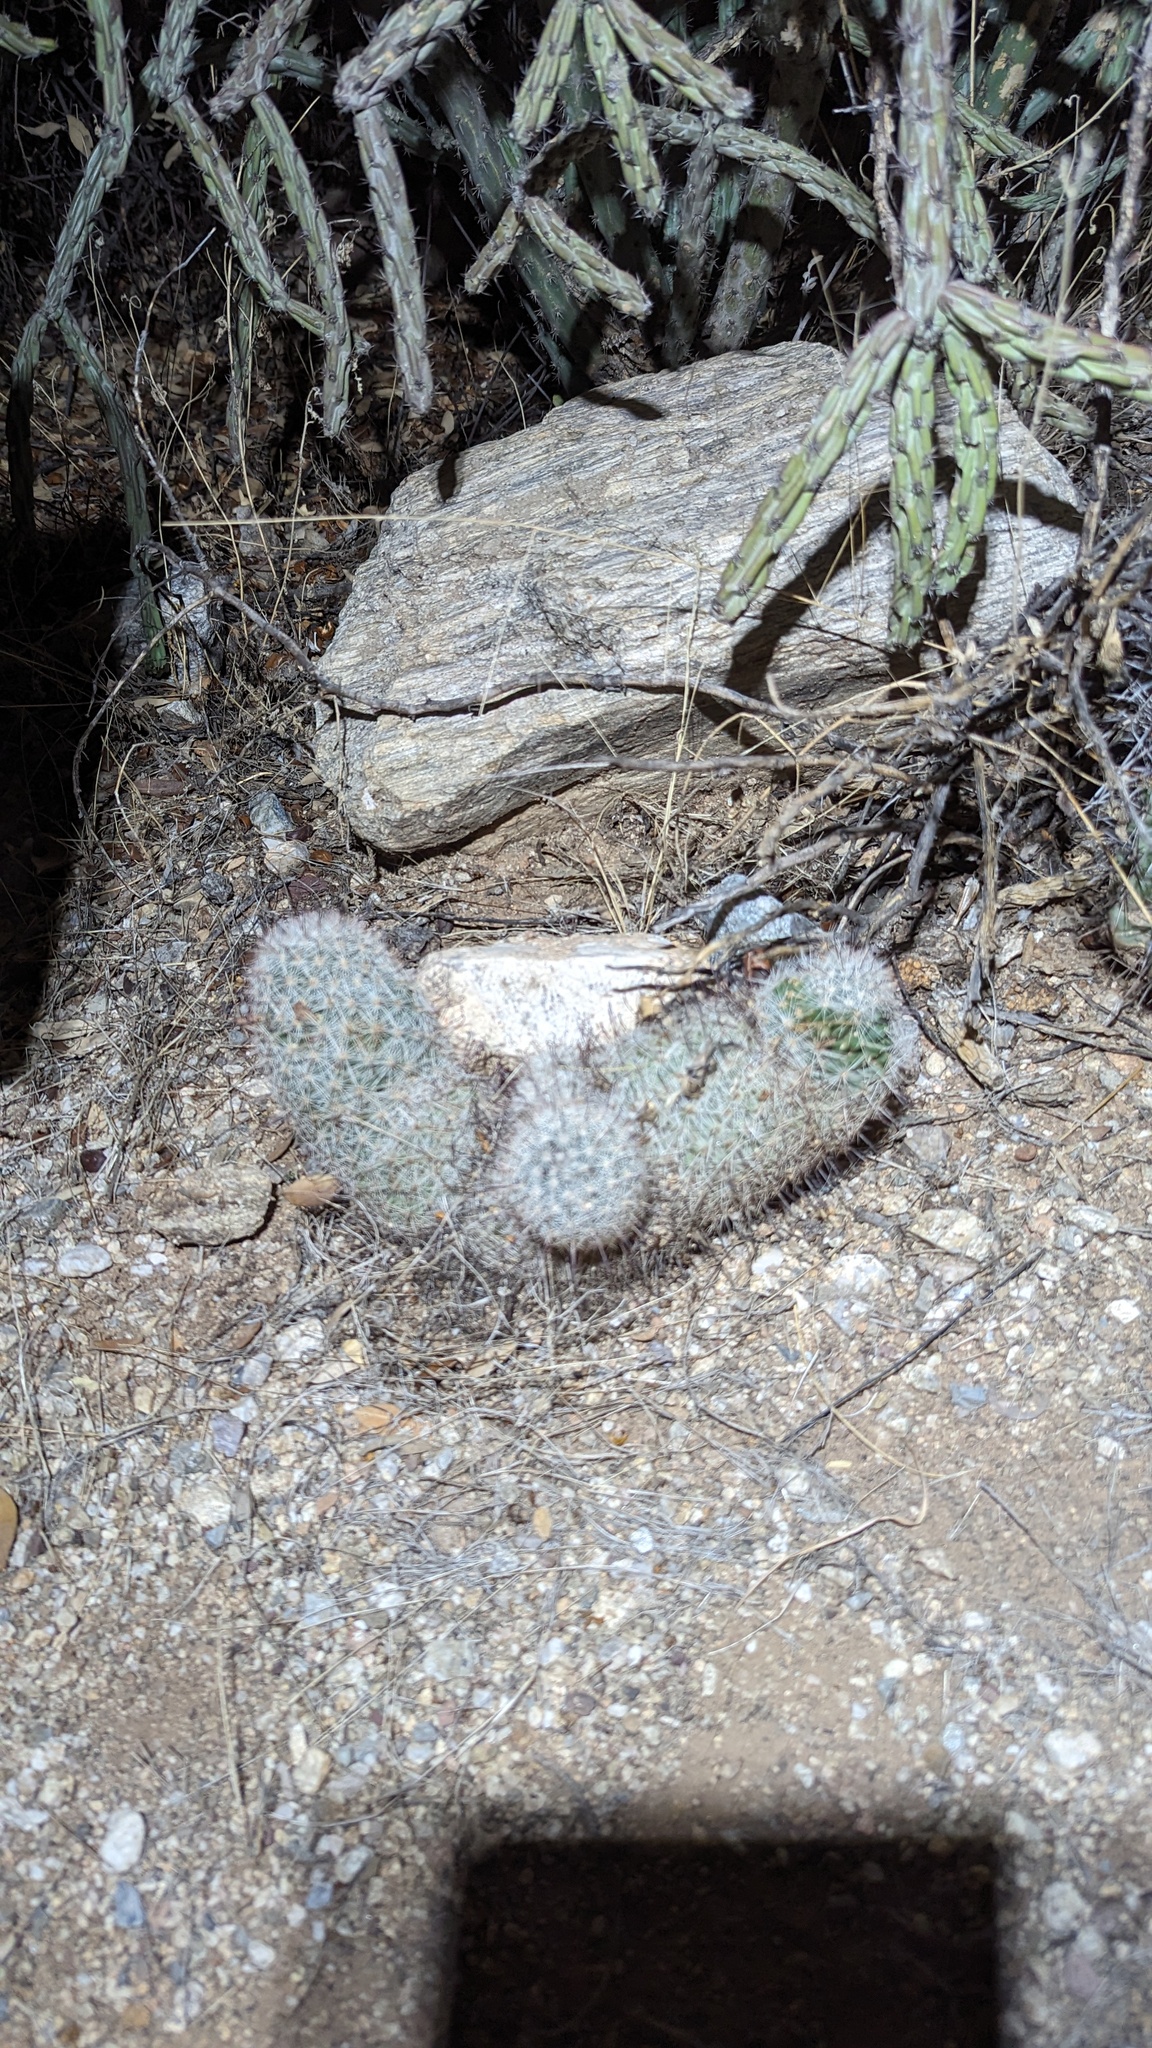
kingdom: Plantae
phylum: Tracheophyta
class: Magnoliopsida
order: Caryophyllales
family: Cactaceae
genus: Cochemiea
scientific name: Cochemiea grahamii
